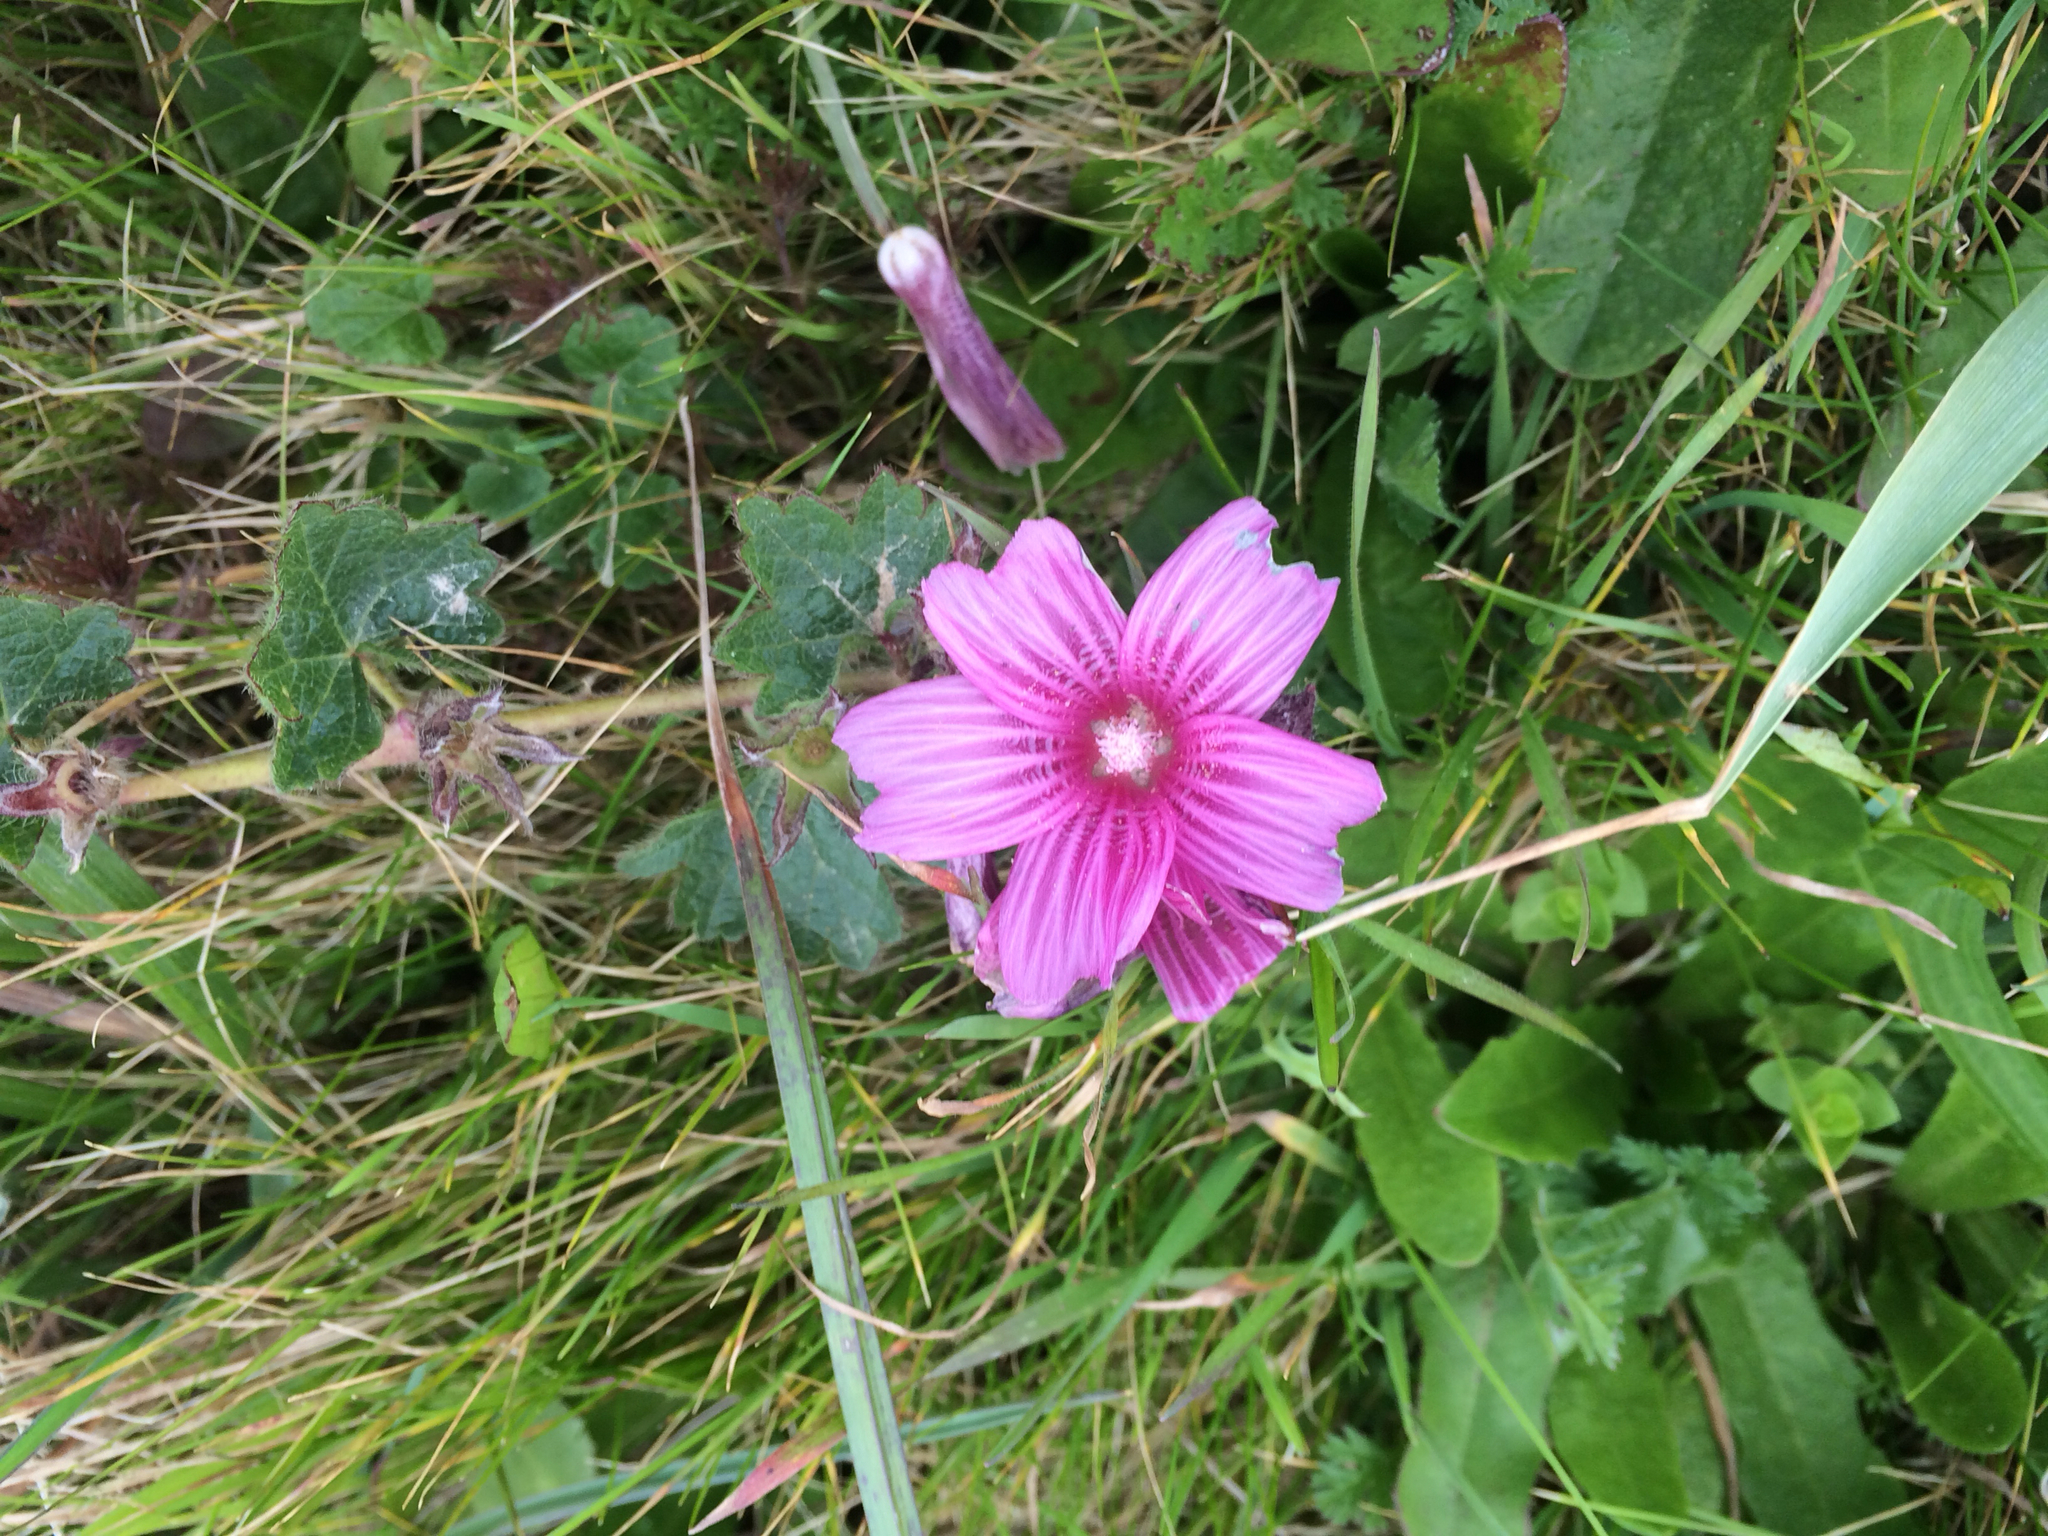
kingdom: Plantae
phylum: Tracheophyta
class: Magnoliopsida
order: Malvales
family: Malvaceae
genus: Sidalcea
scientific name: Sidalcea malviflora
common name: Greek mallow
